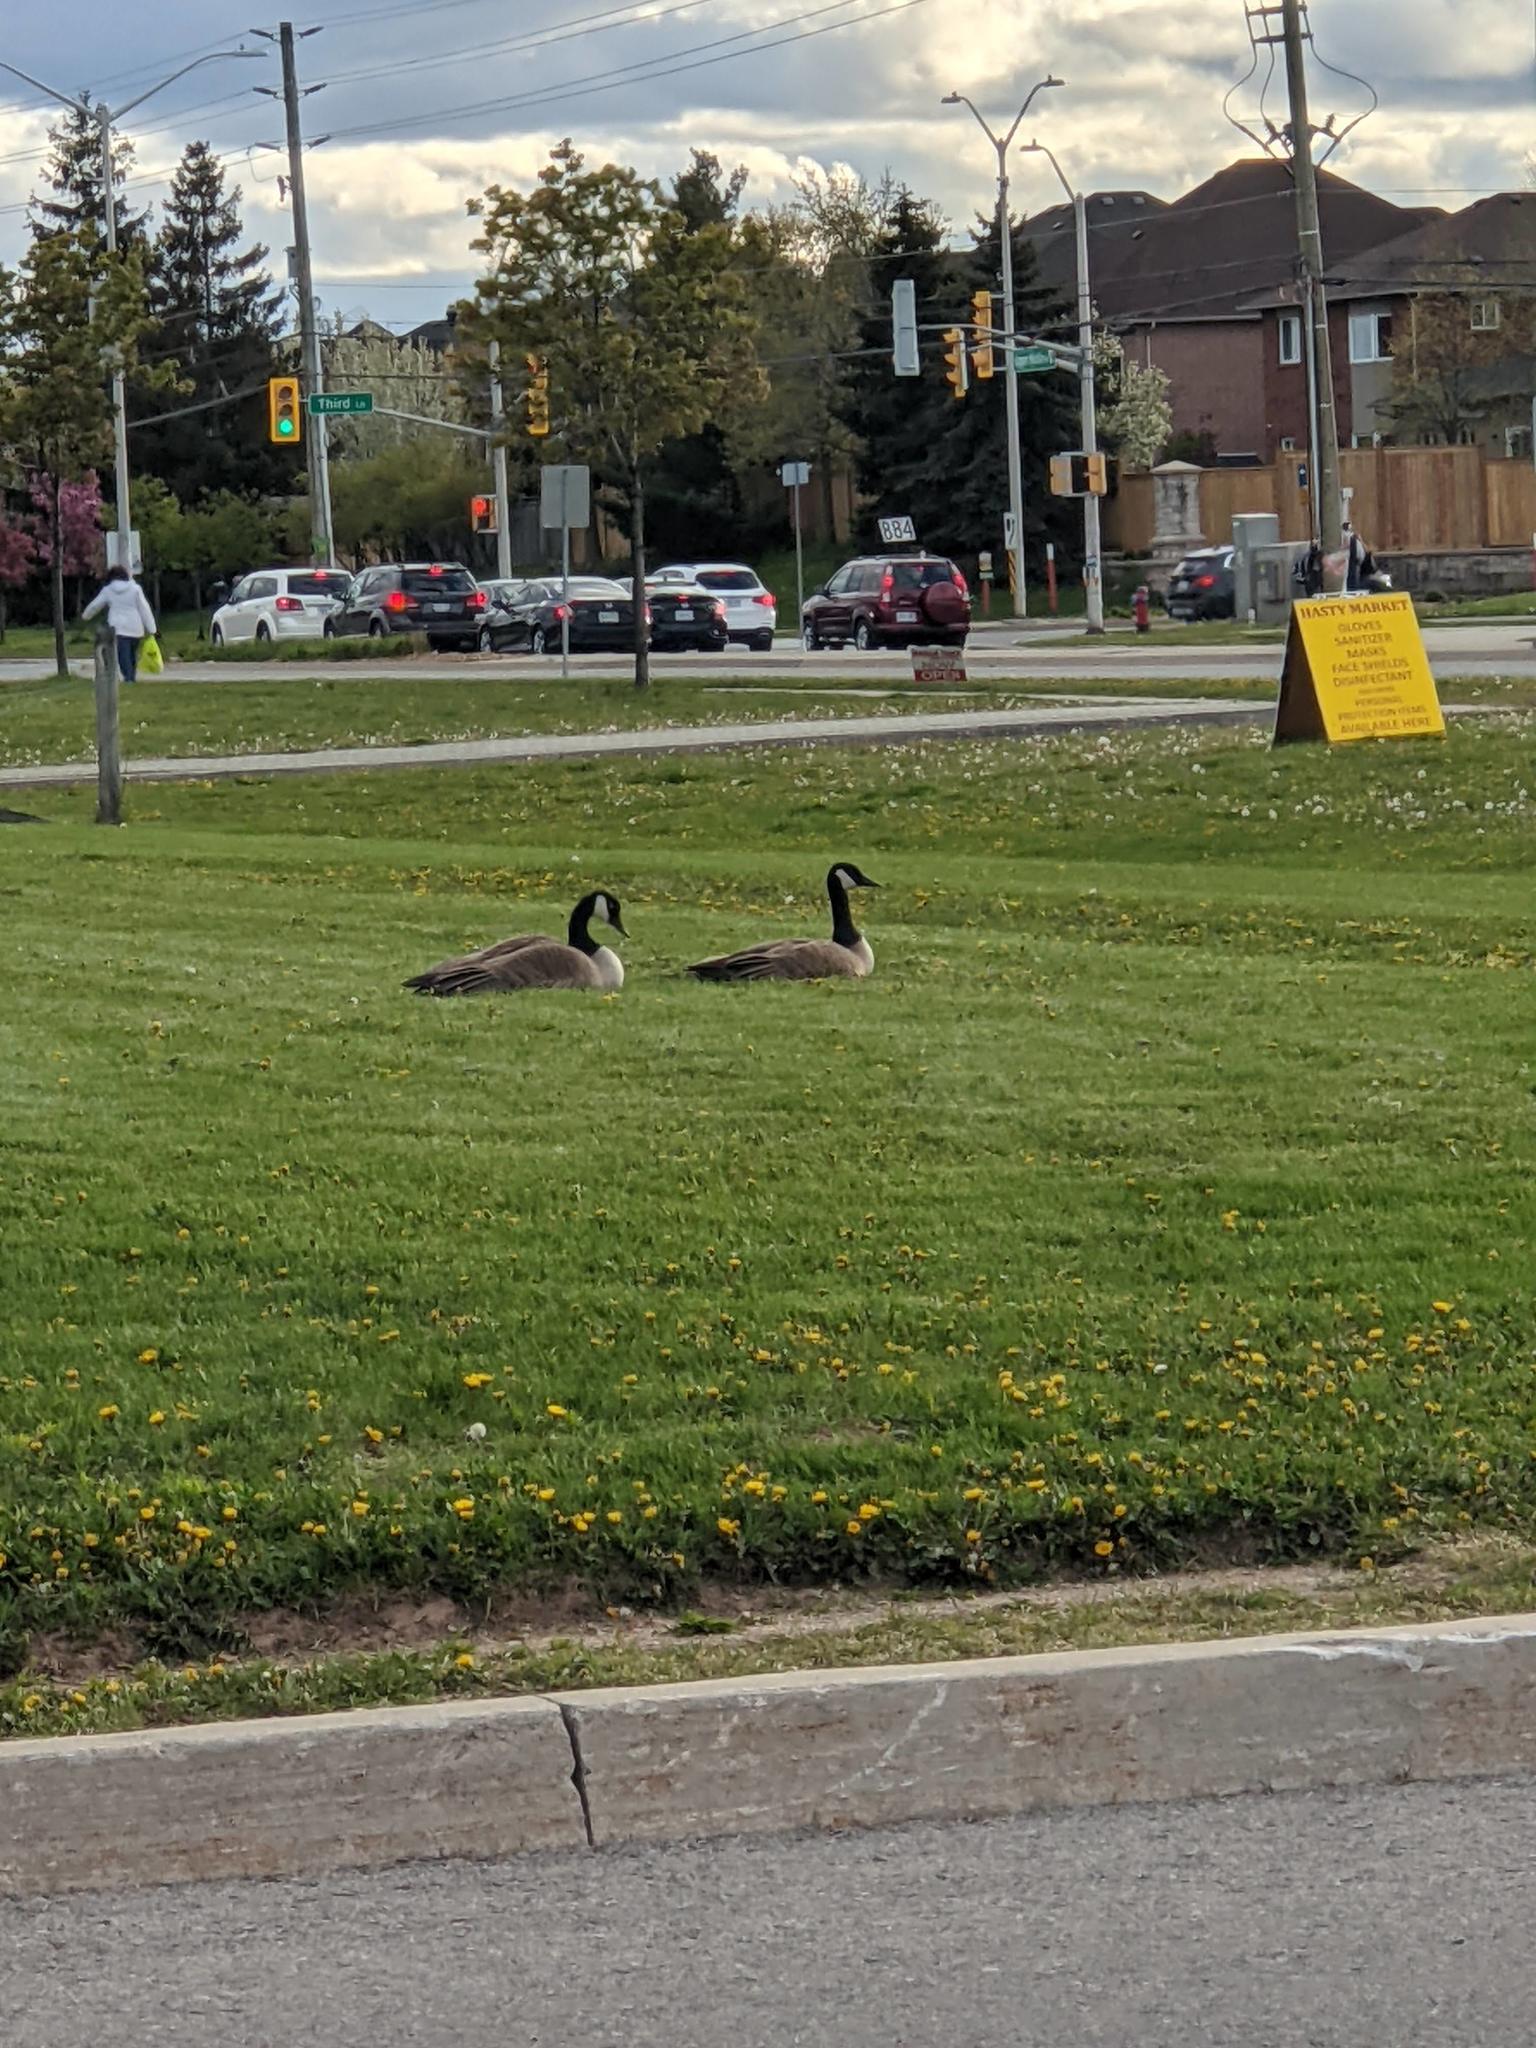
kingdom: Animalia
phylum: Chordata
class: Aves
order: Anseriformes
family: Anatidae
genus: Branta
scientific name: Branta canadensis
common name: Canada goose
